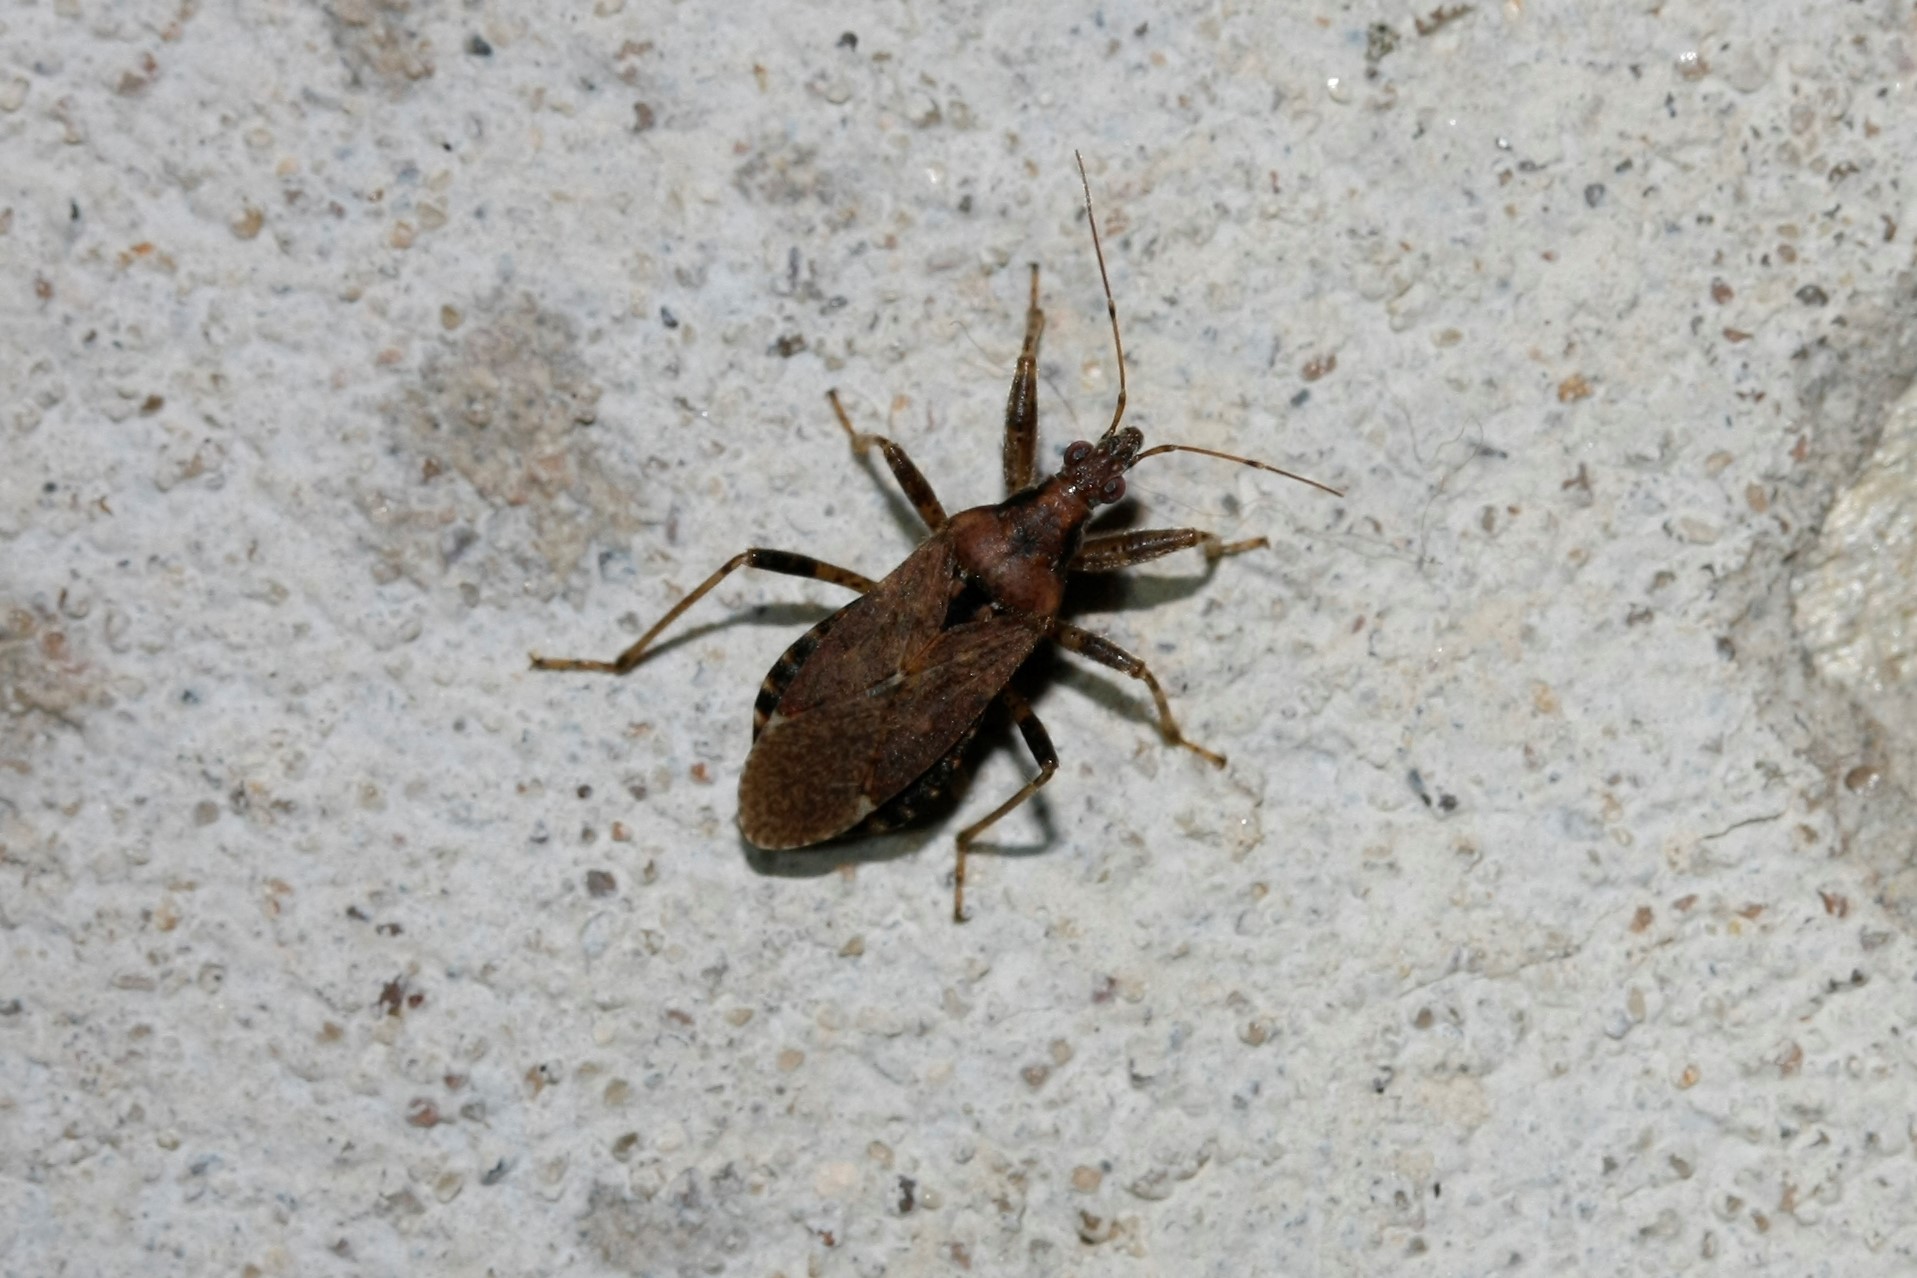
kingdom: Animalia
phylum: Arthropoda
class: Insecta
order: Hemiptera
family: Nabidae
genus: Himacerus
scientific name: Himacerus mirmicoides
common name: Ant damsel bug
